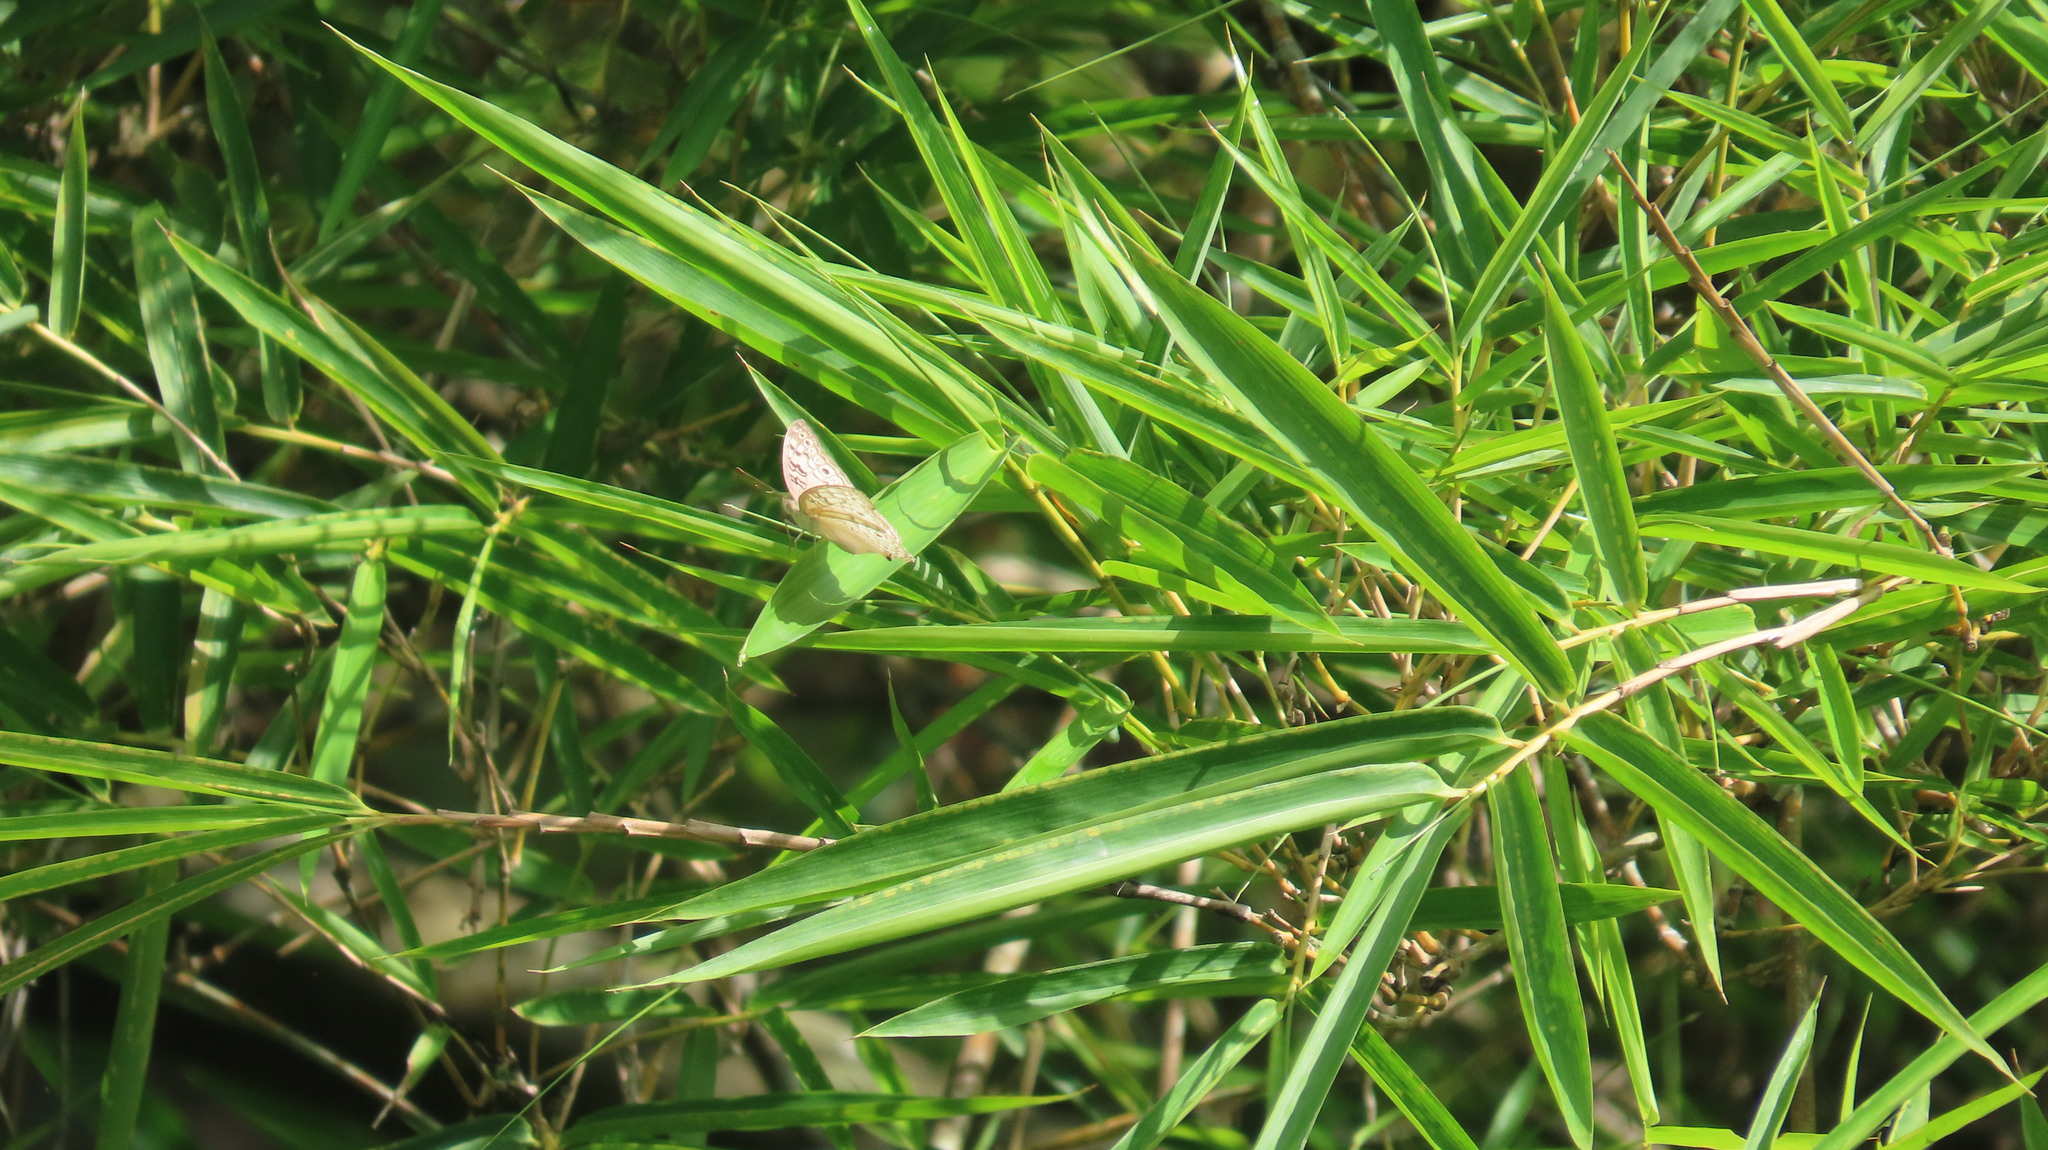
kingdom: Animalia
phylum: Arthropoda
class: Insecta
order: Lepidoptera
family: Nymphalidae
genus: Junonia
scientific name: Junonia atlites
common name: Grey pansy
